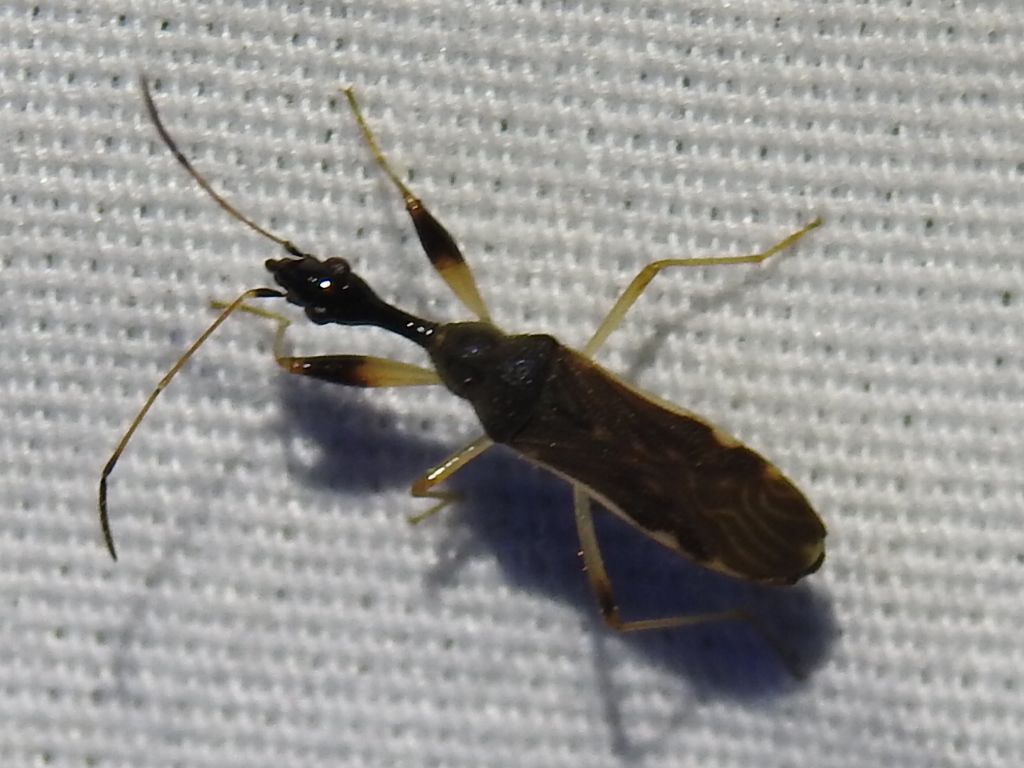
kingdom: Animalia
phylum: Arthropoda
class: Insecta
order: Hemiptera
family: Rhyparochromidae
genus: Myodocha
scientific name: Myodocha serripes
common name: Long-necked seed bug
